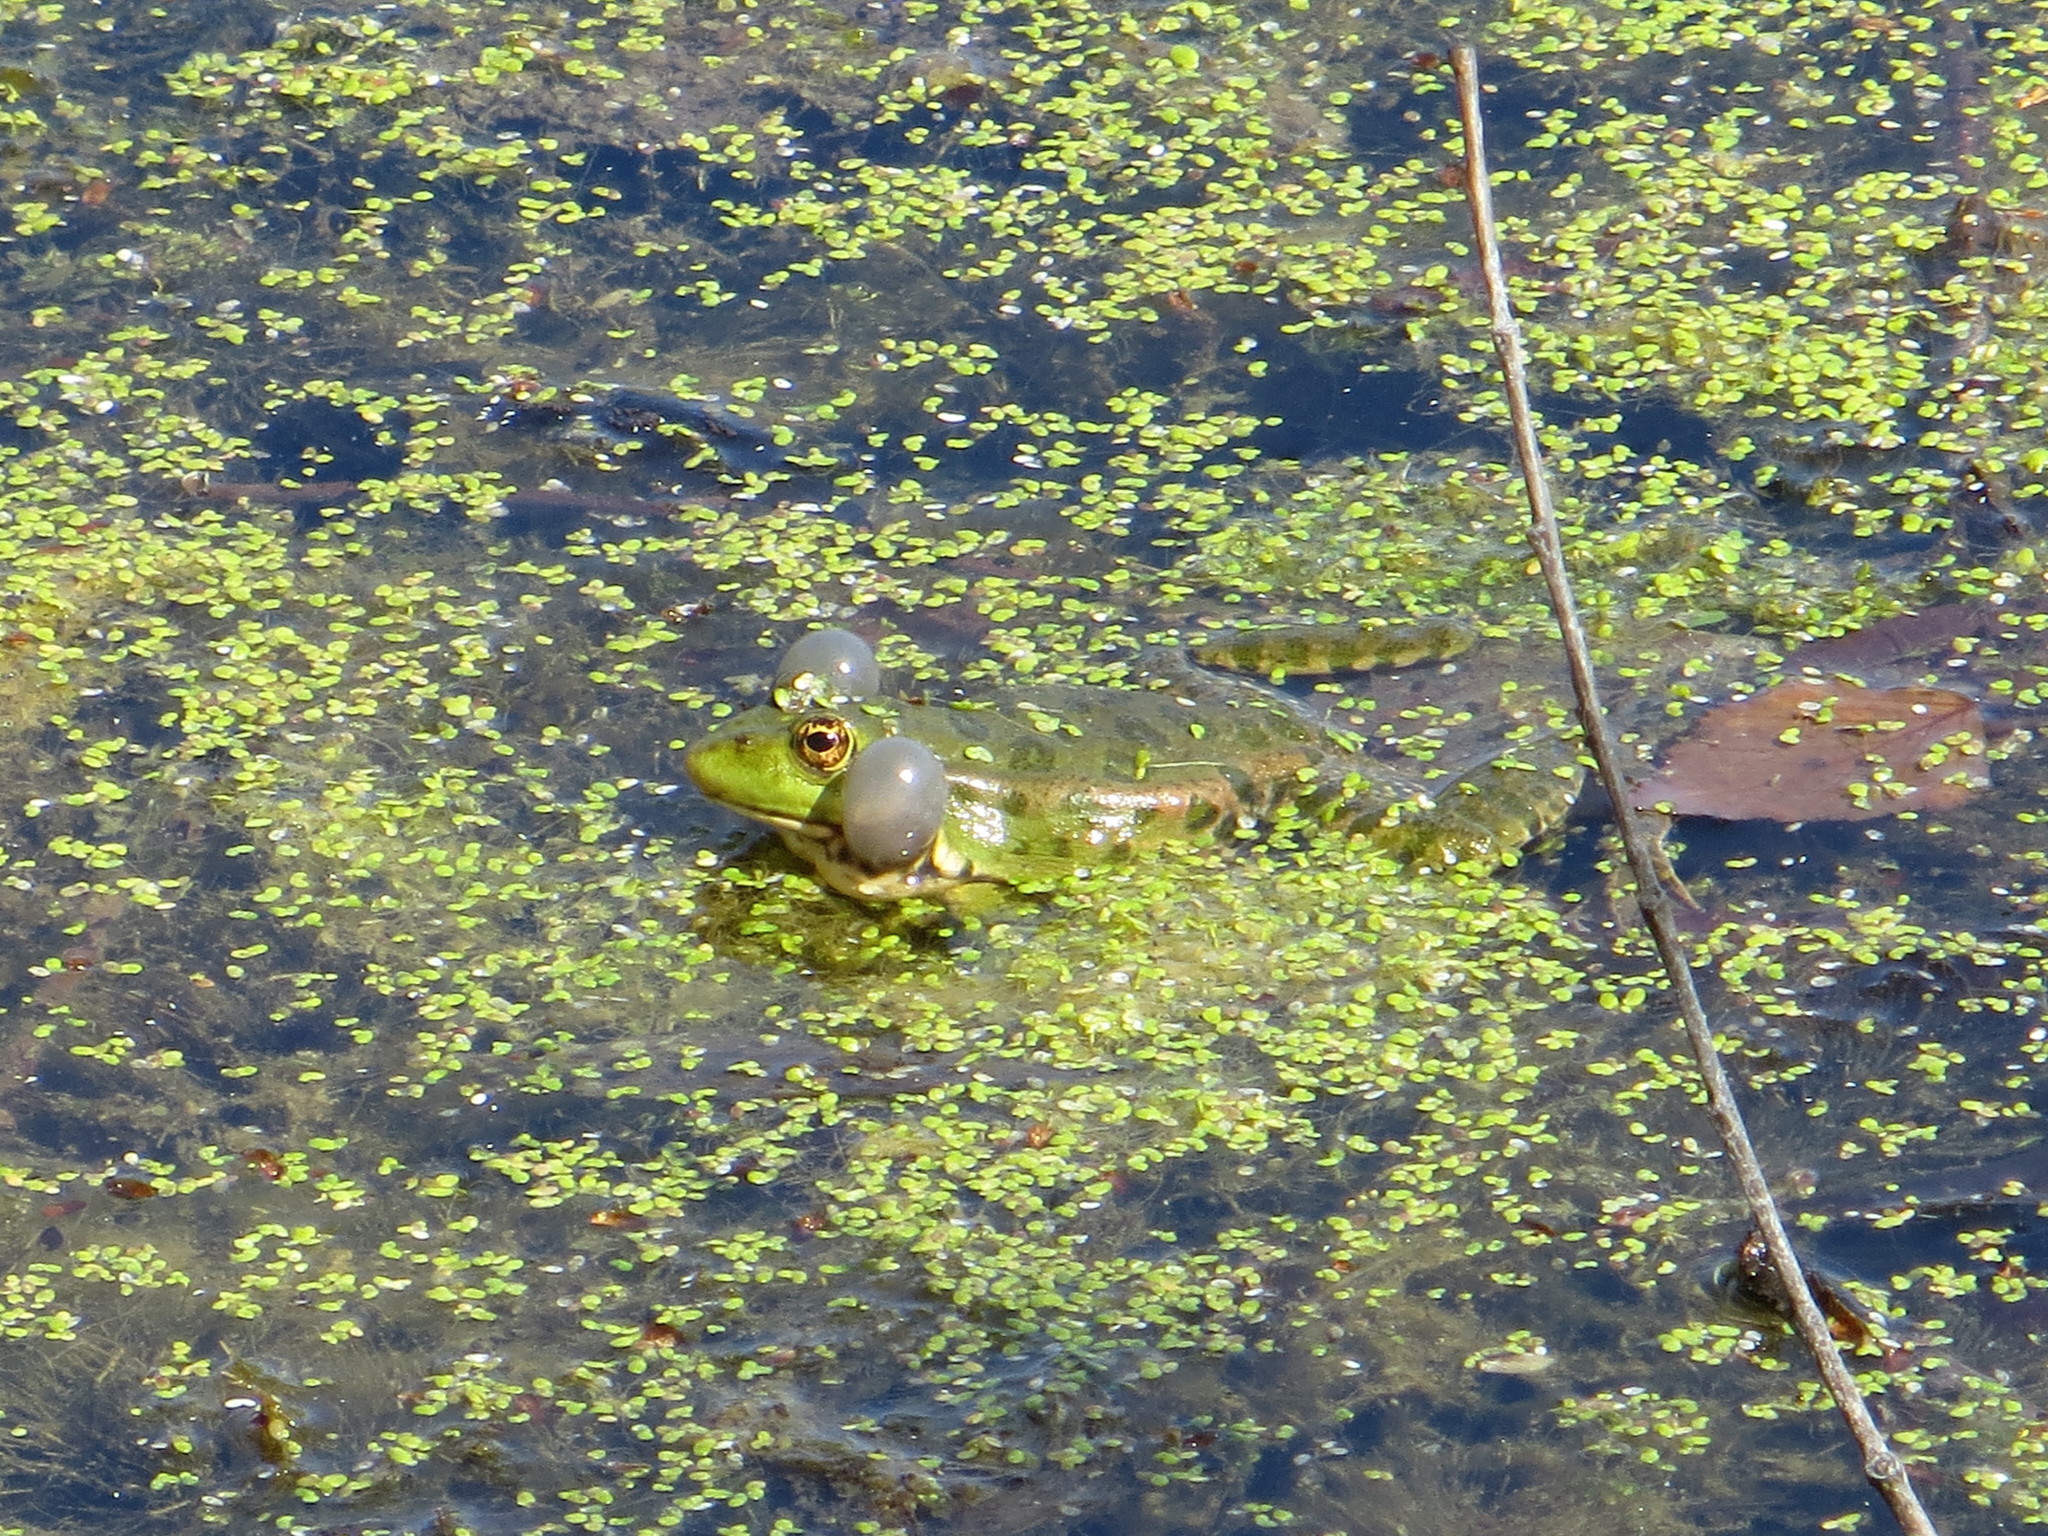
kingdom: Animalia
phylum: Chordata
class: Amphibia
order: Anura
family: Ranidae
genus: Pelophylax
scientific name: Pelophylax ridibundus
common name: Marsh frog
